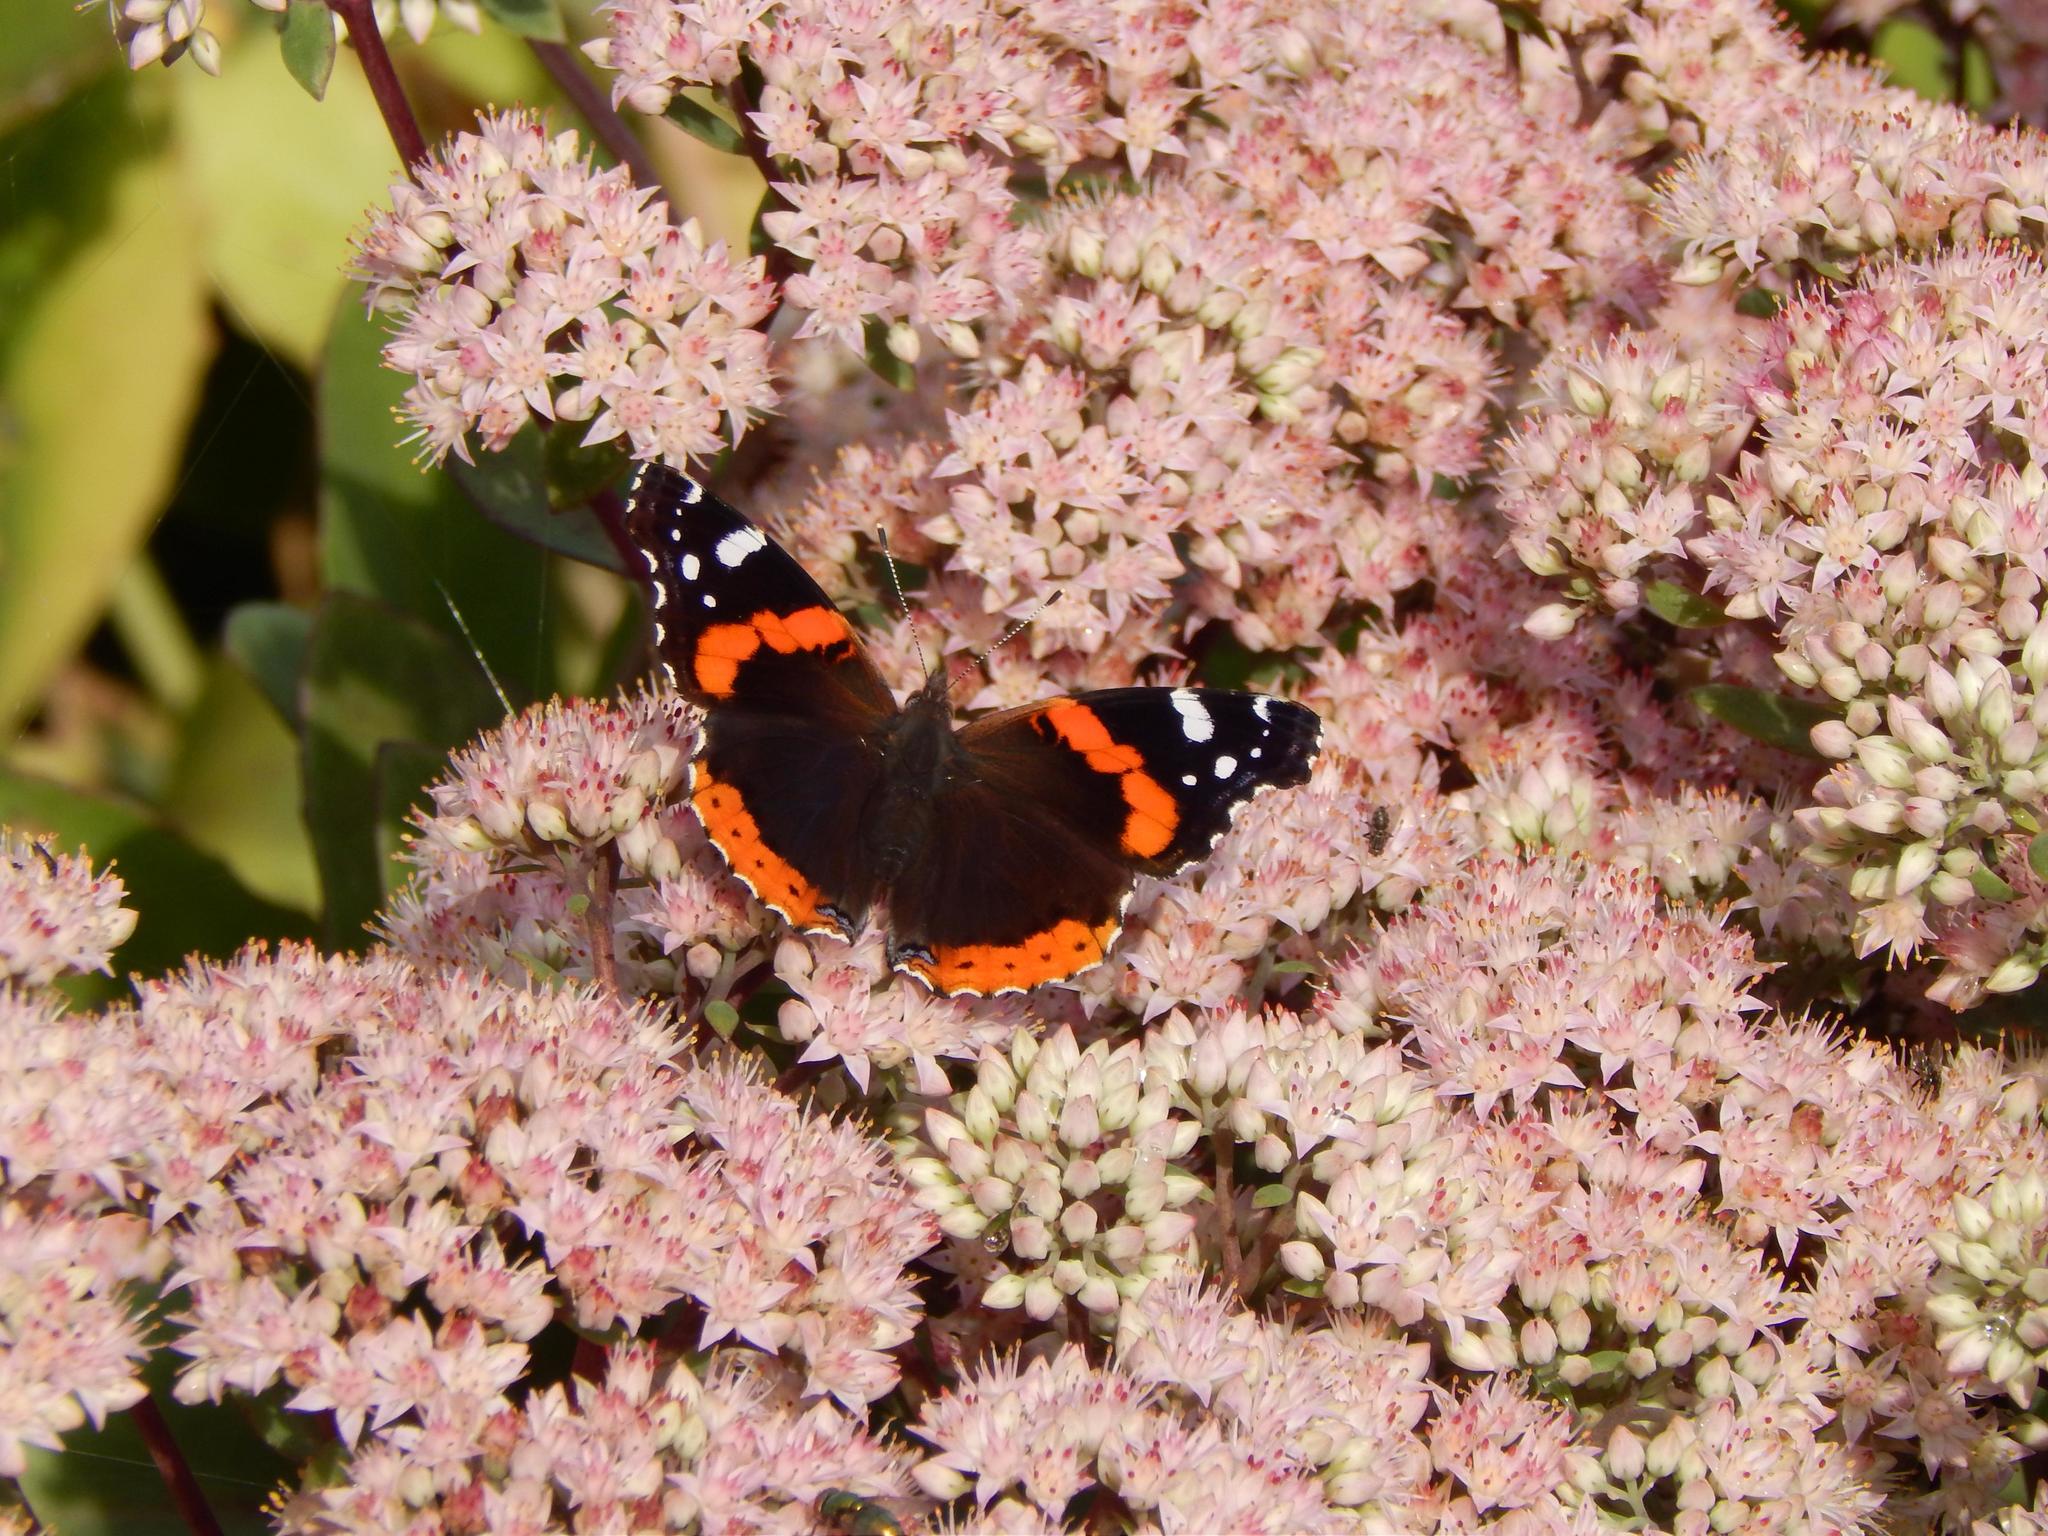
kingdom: Animalia
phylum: Arthropoda
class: Insecta
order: Lepidoptera
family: Nymphalidae
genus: Vanessa
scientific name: Vanessa atalanta
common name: Red admiral
